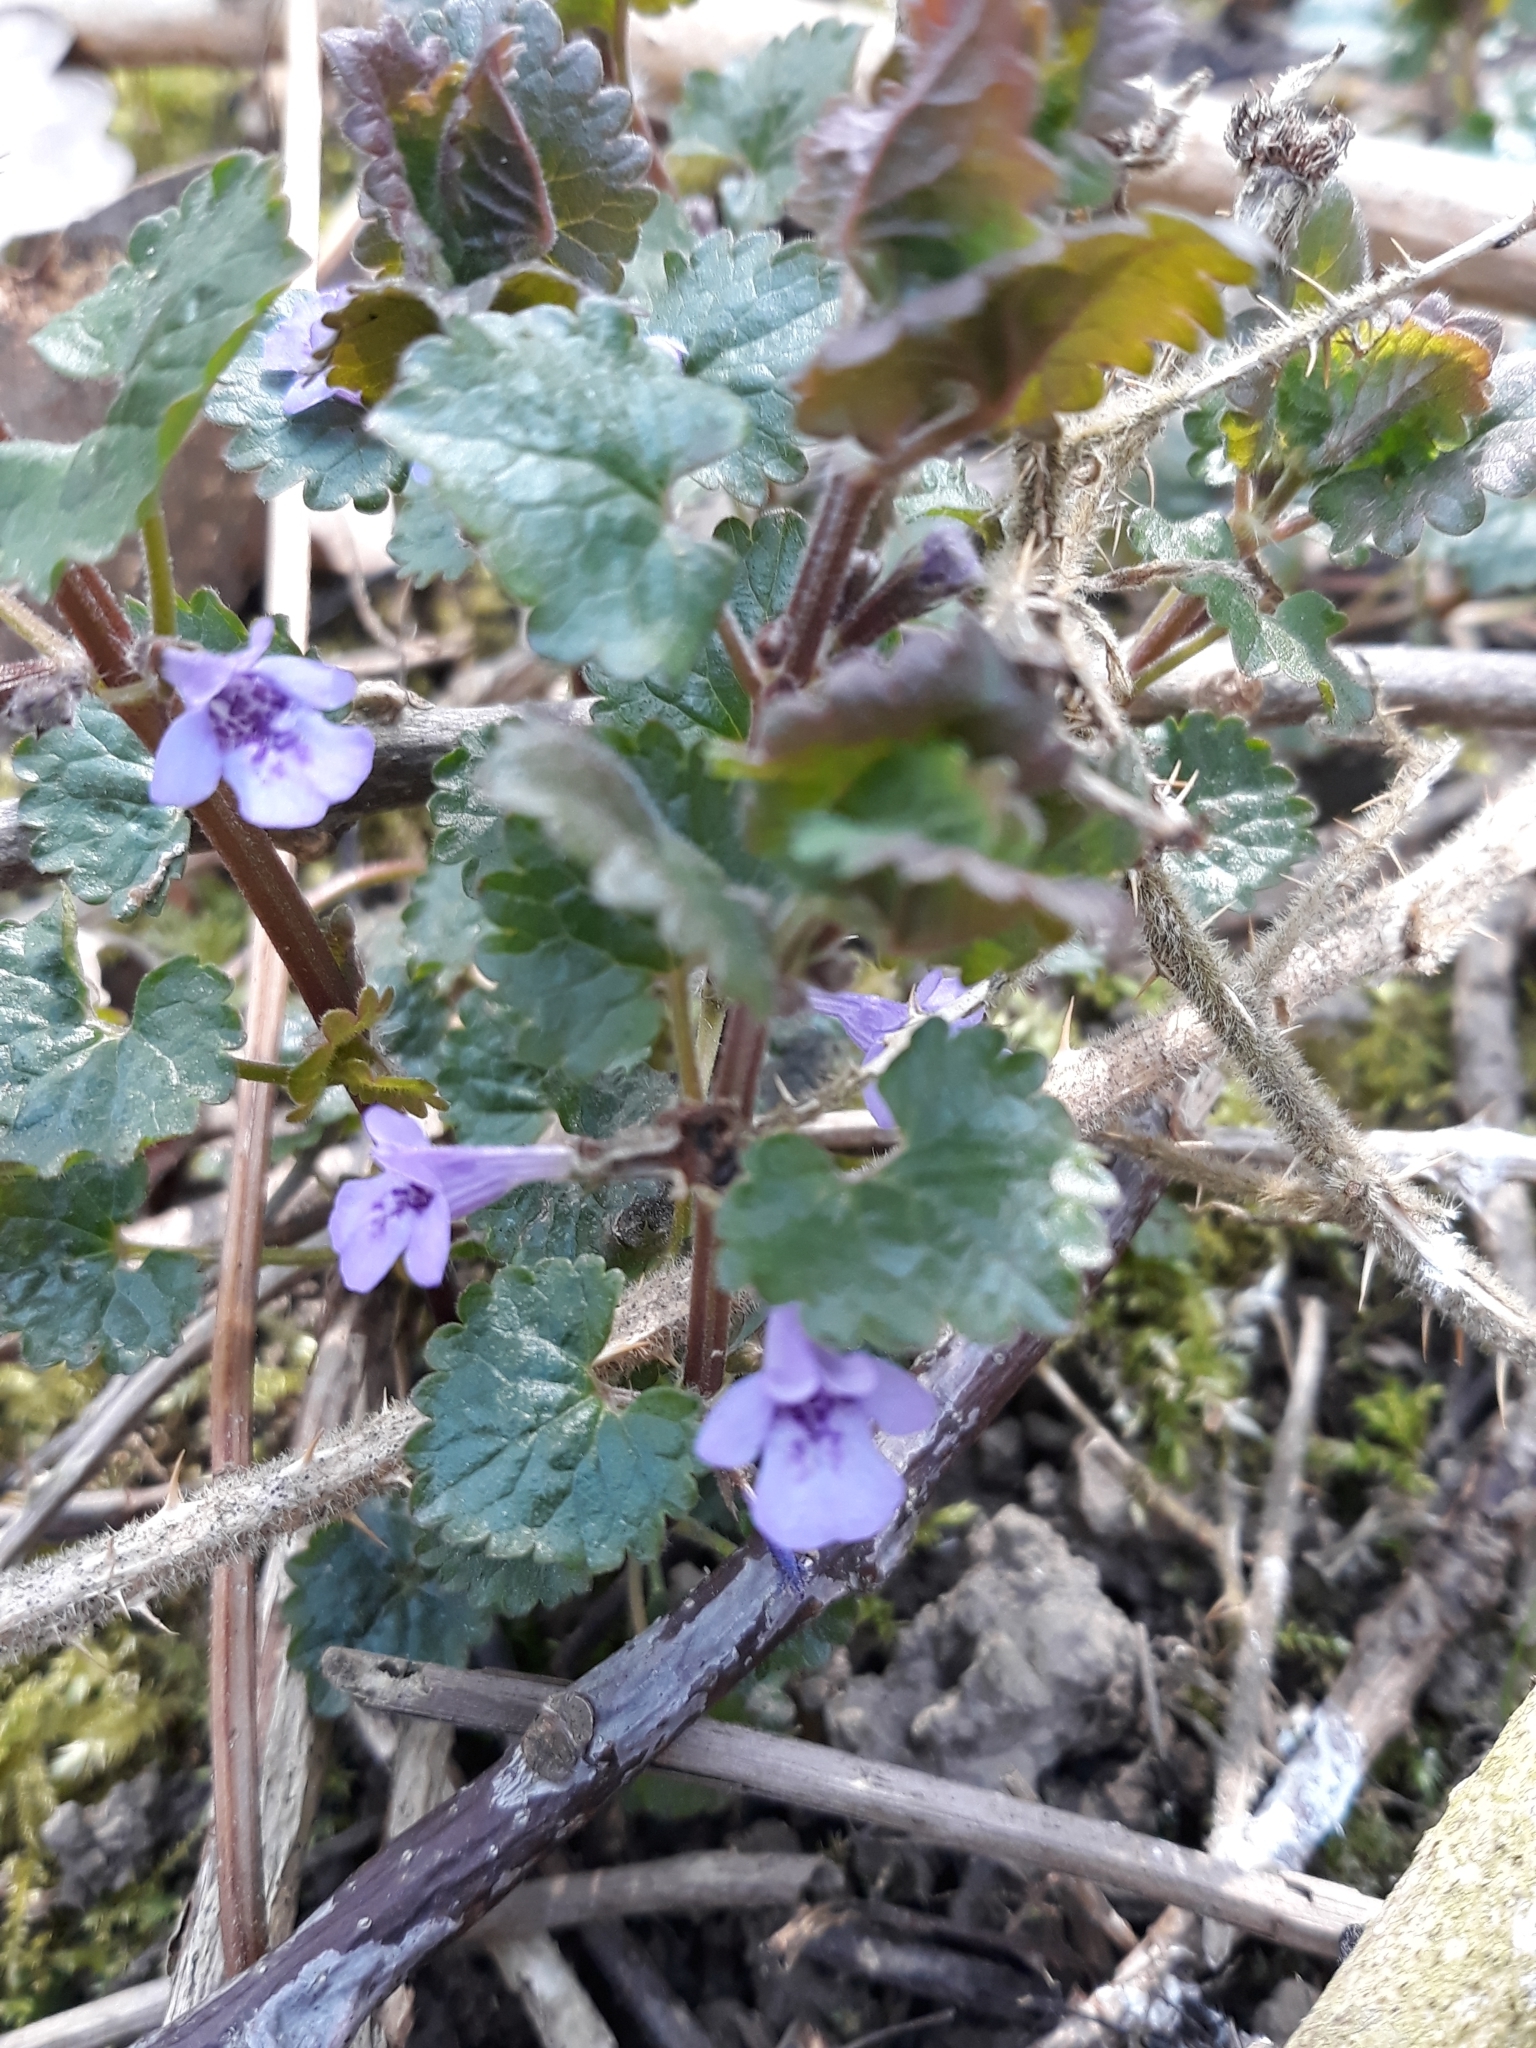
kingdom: Plantae
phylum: Tracheophyta
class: Magnoliopsida
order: Lamiales
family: Lamiaceae
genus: Glechoma
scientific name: Glechoma hederacea
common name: Ground ivy
